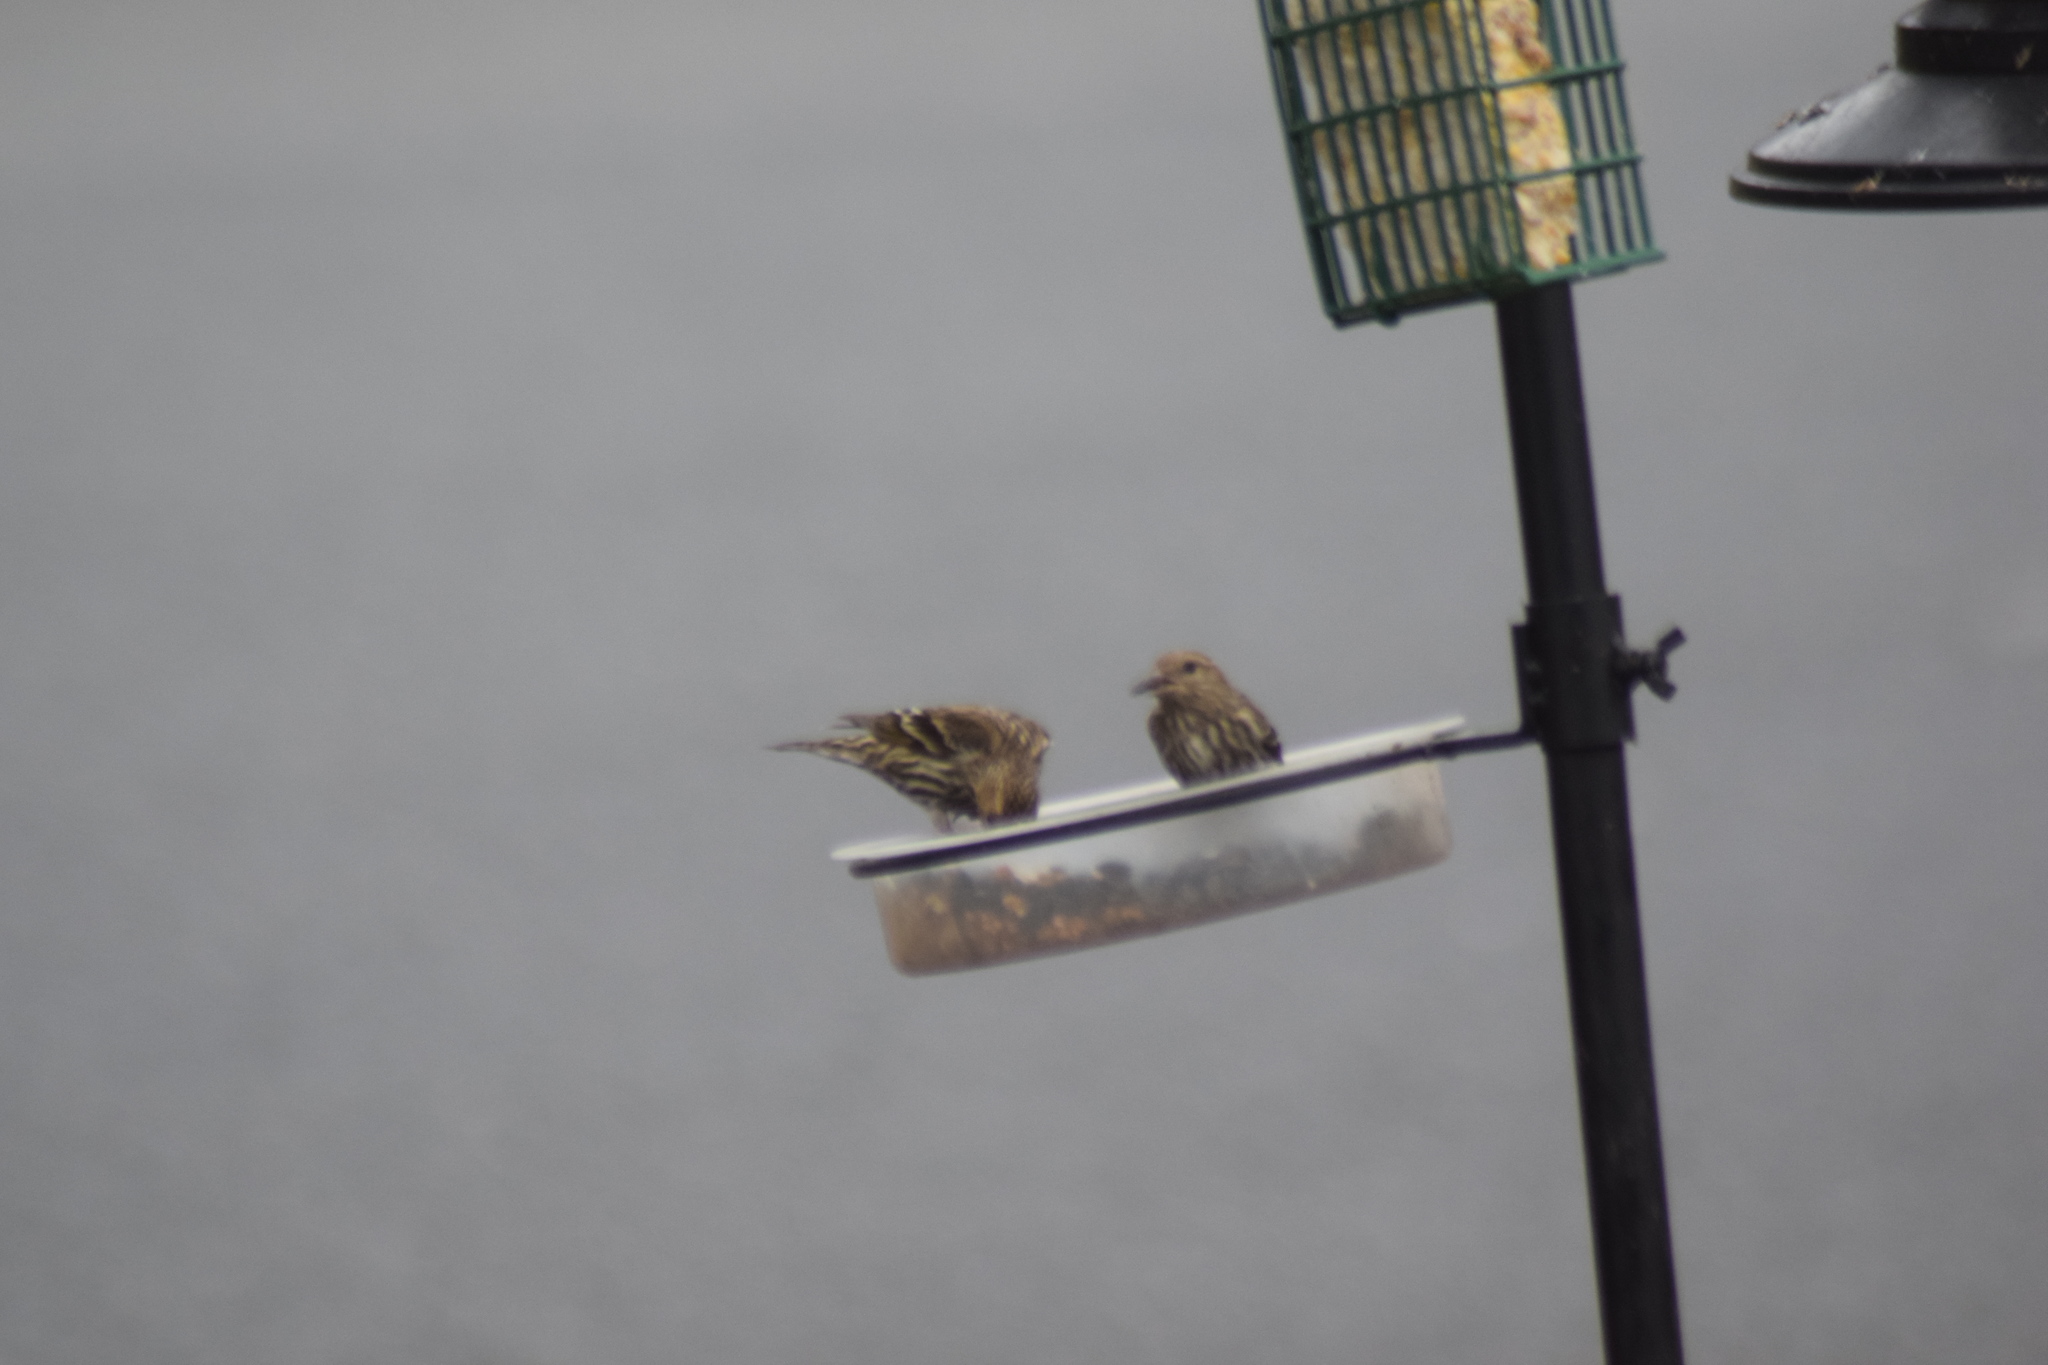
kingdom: Animalia
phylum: Chordata
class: Aves
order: Passeriformes
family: Fringillidae
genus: Spinus
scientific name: Spinus pinus
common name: Pine siskin
